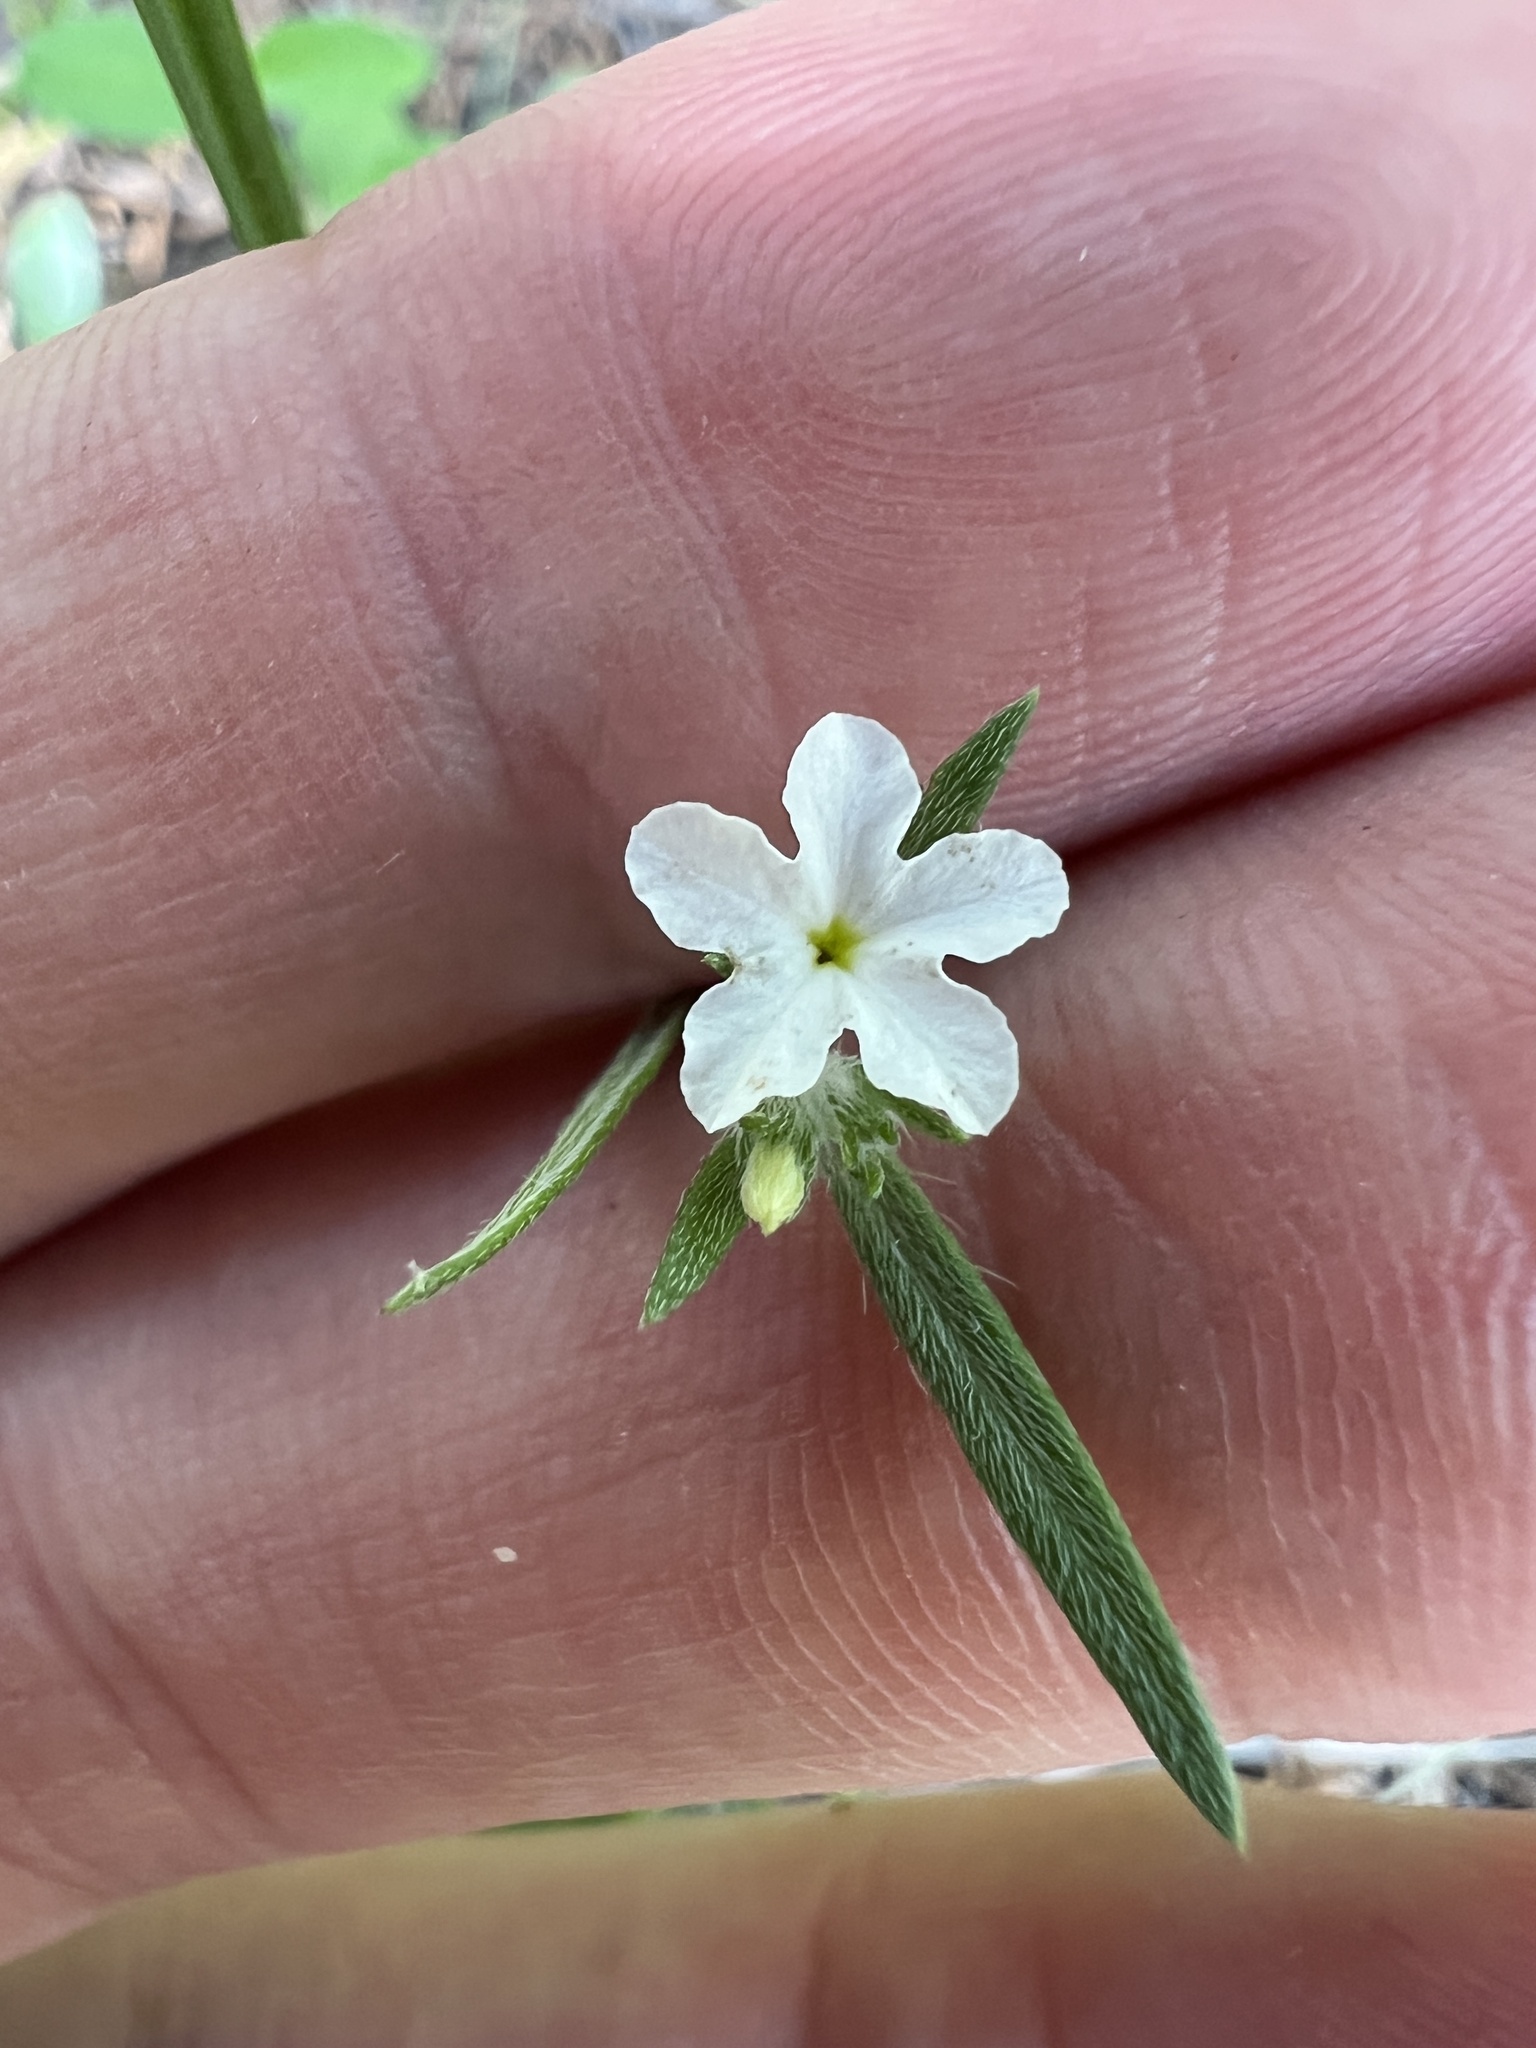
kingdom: Plantae
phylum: Tracheophyta
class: Magnoliopsida
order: Boraginales
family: Heliotropiaceae
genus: Euploca
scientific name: Euploca tenella
